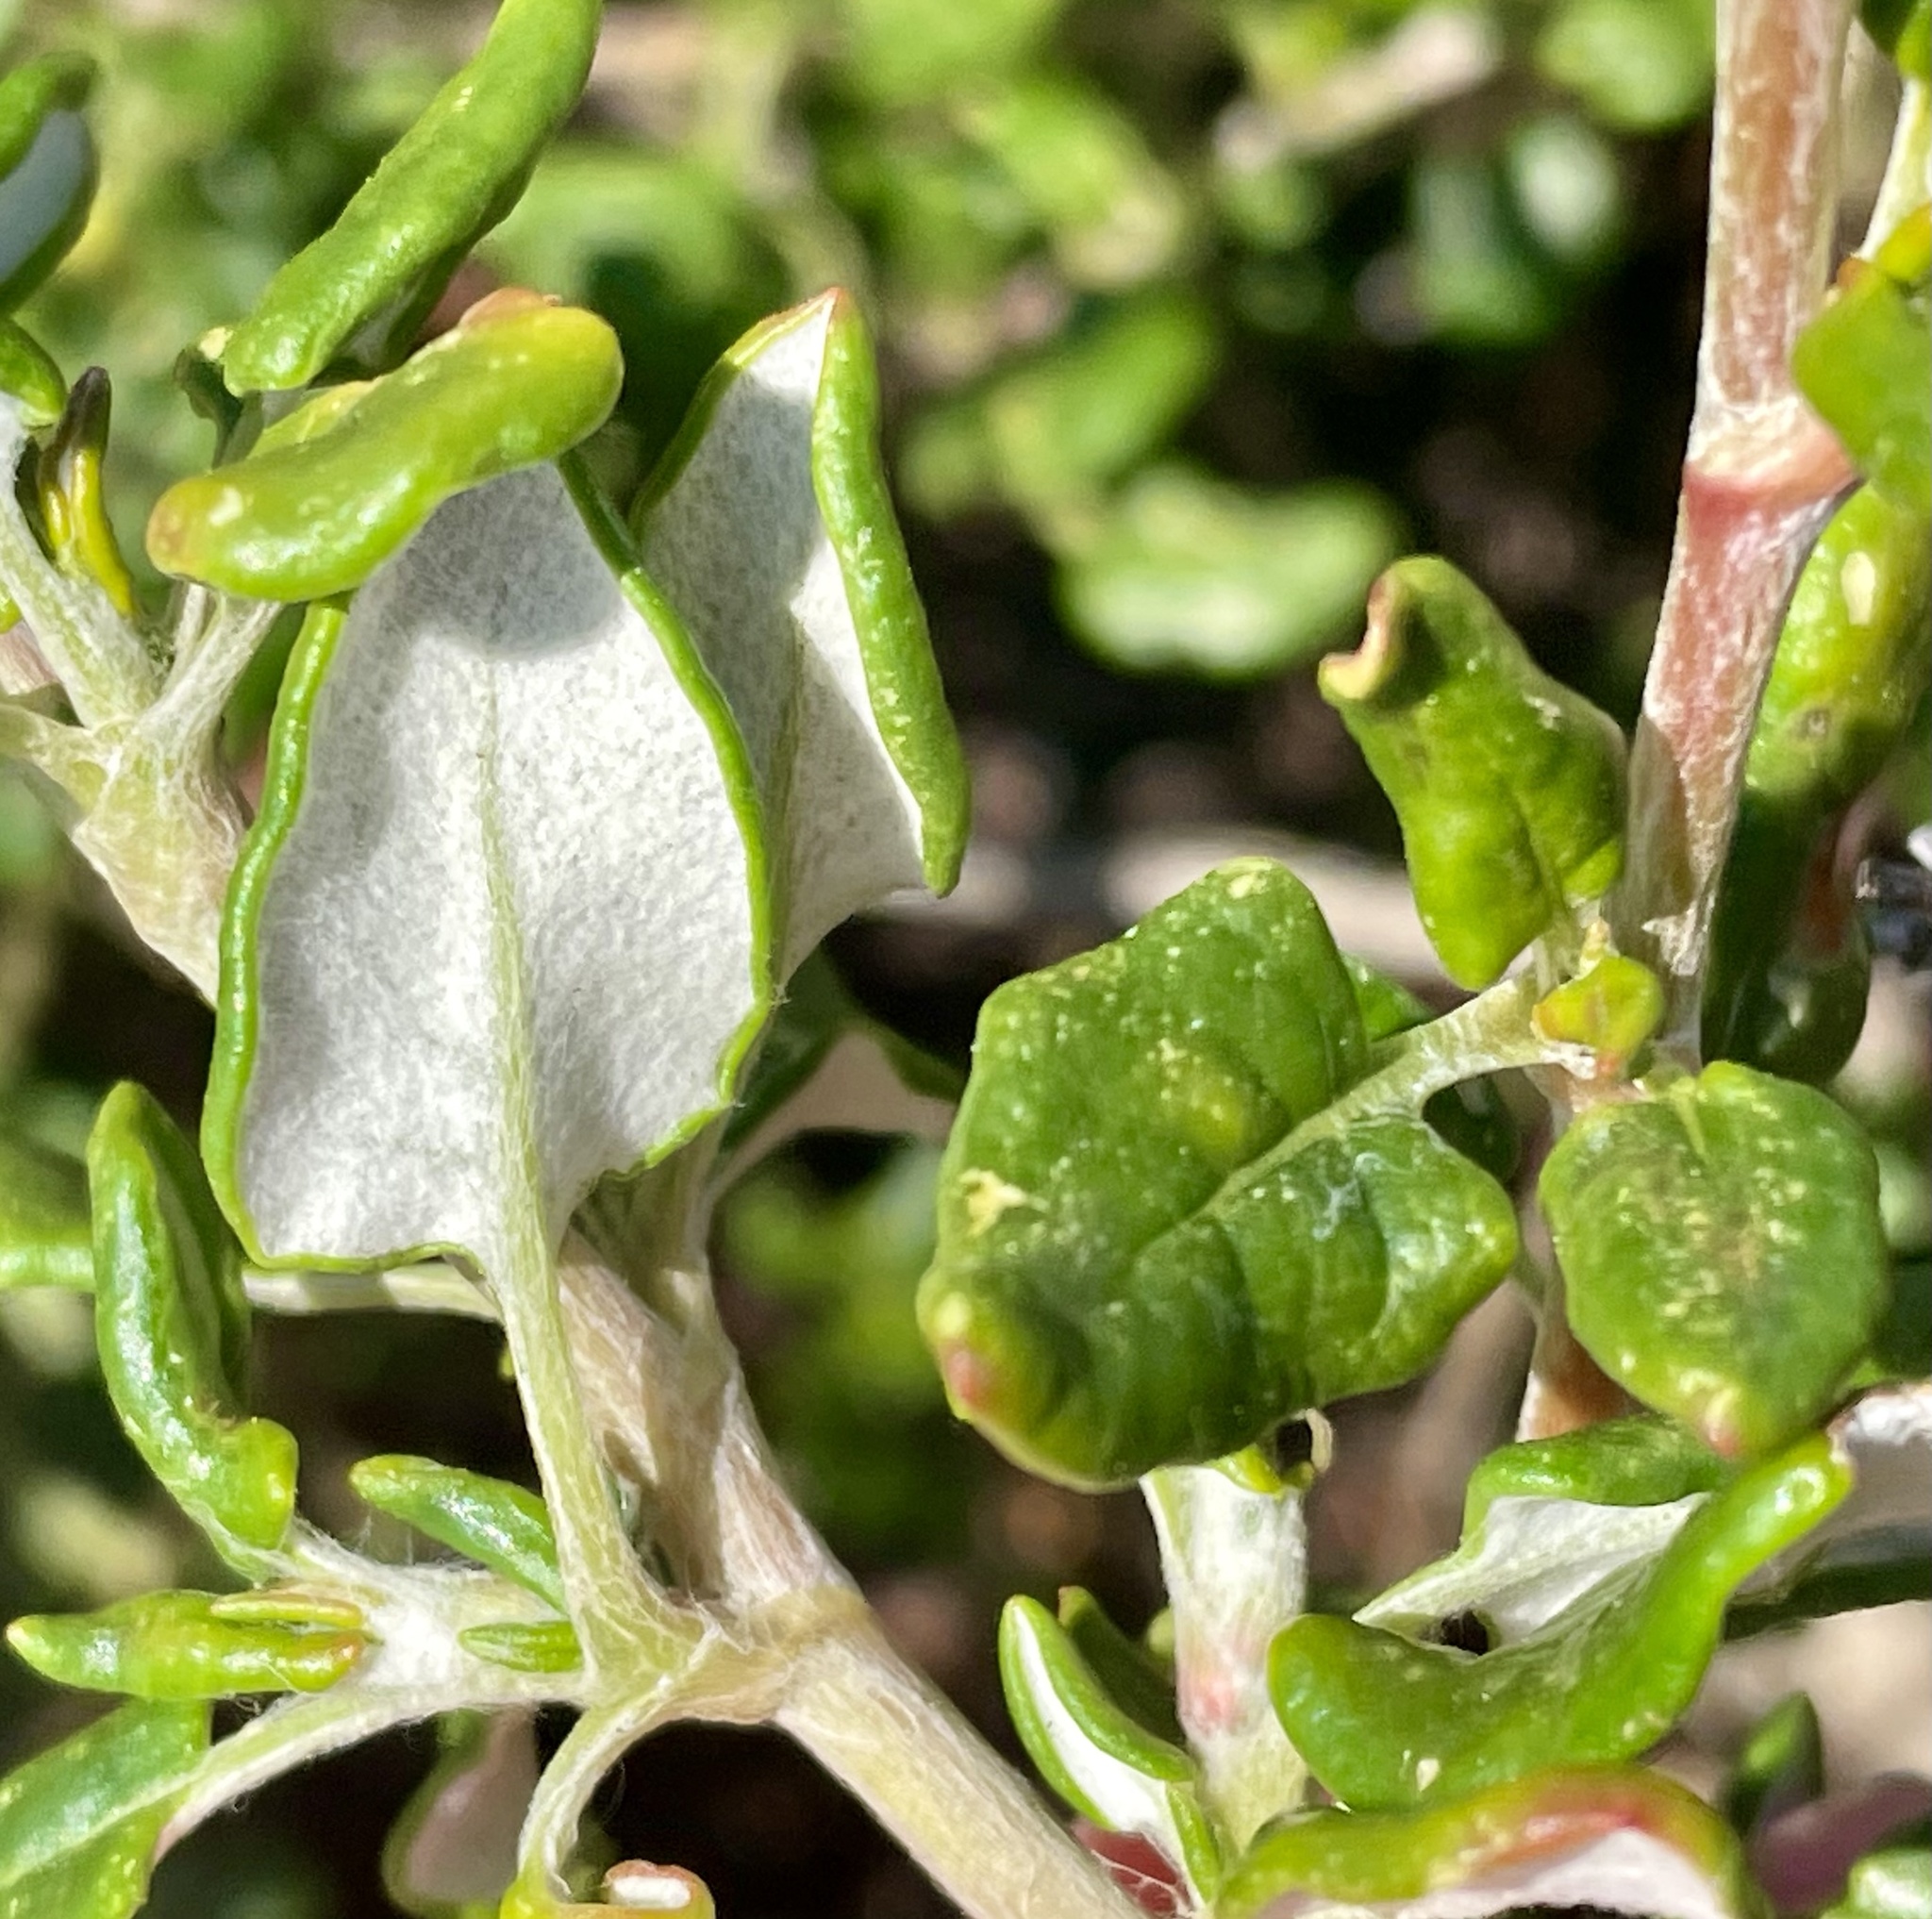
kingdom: Plantae
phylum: Tracheophyta
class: Magnoliopsida
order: Caryophyllales
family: Polygonaceae
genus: Eriogonum
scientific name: Eriogonum parvifolium
